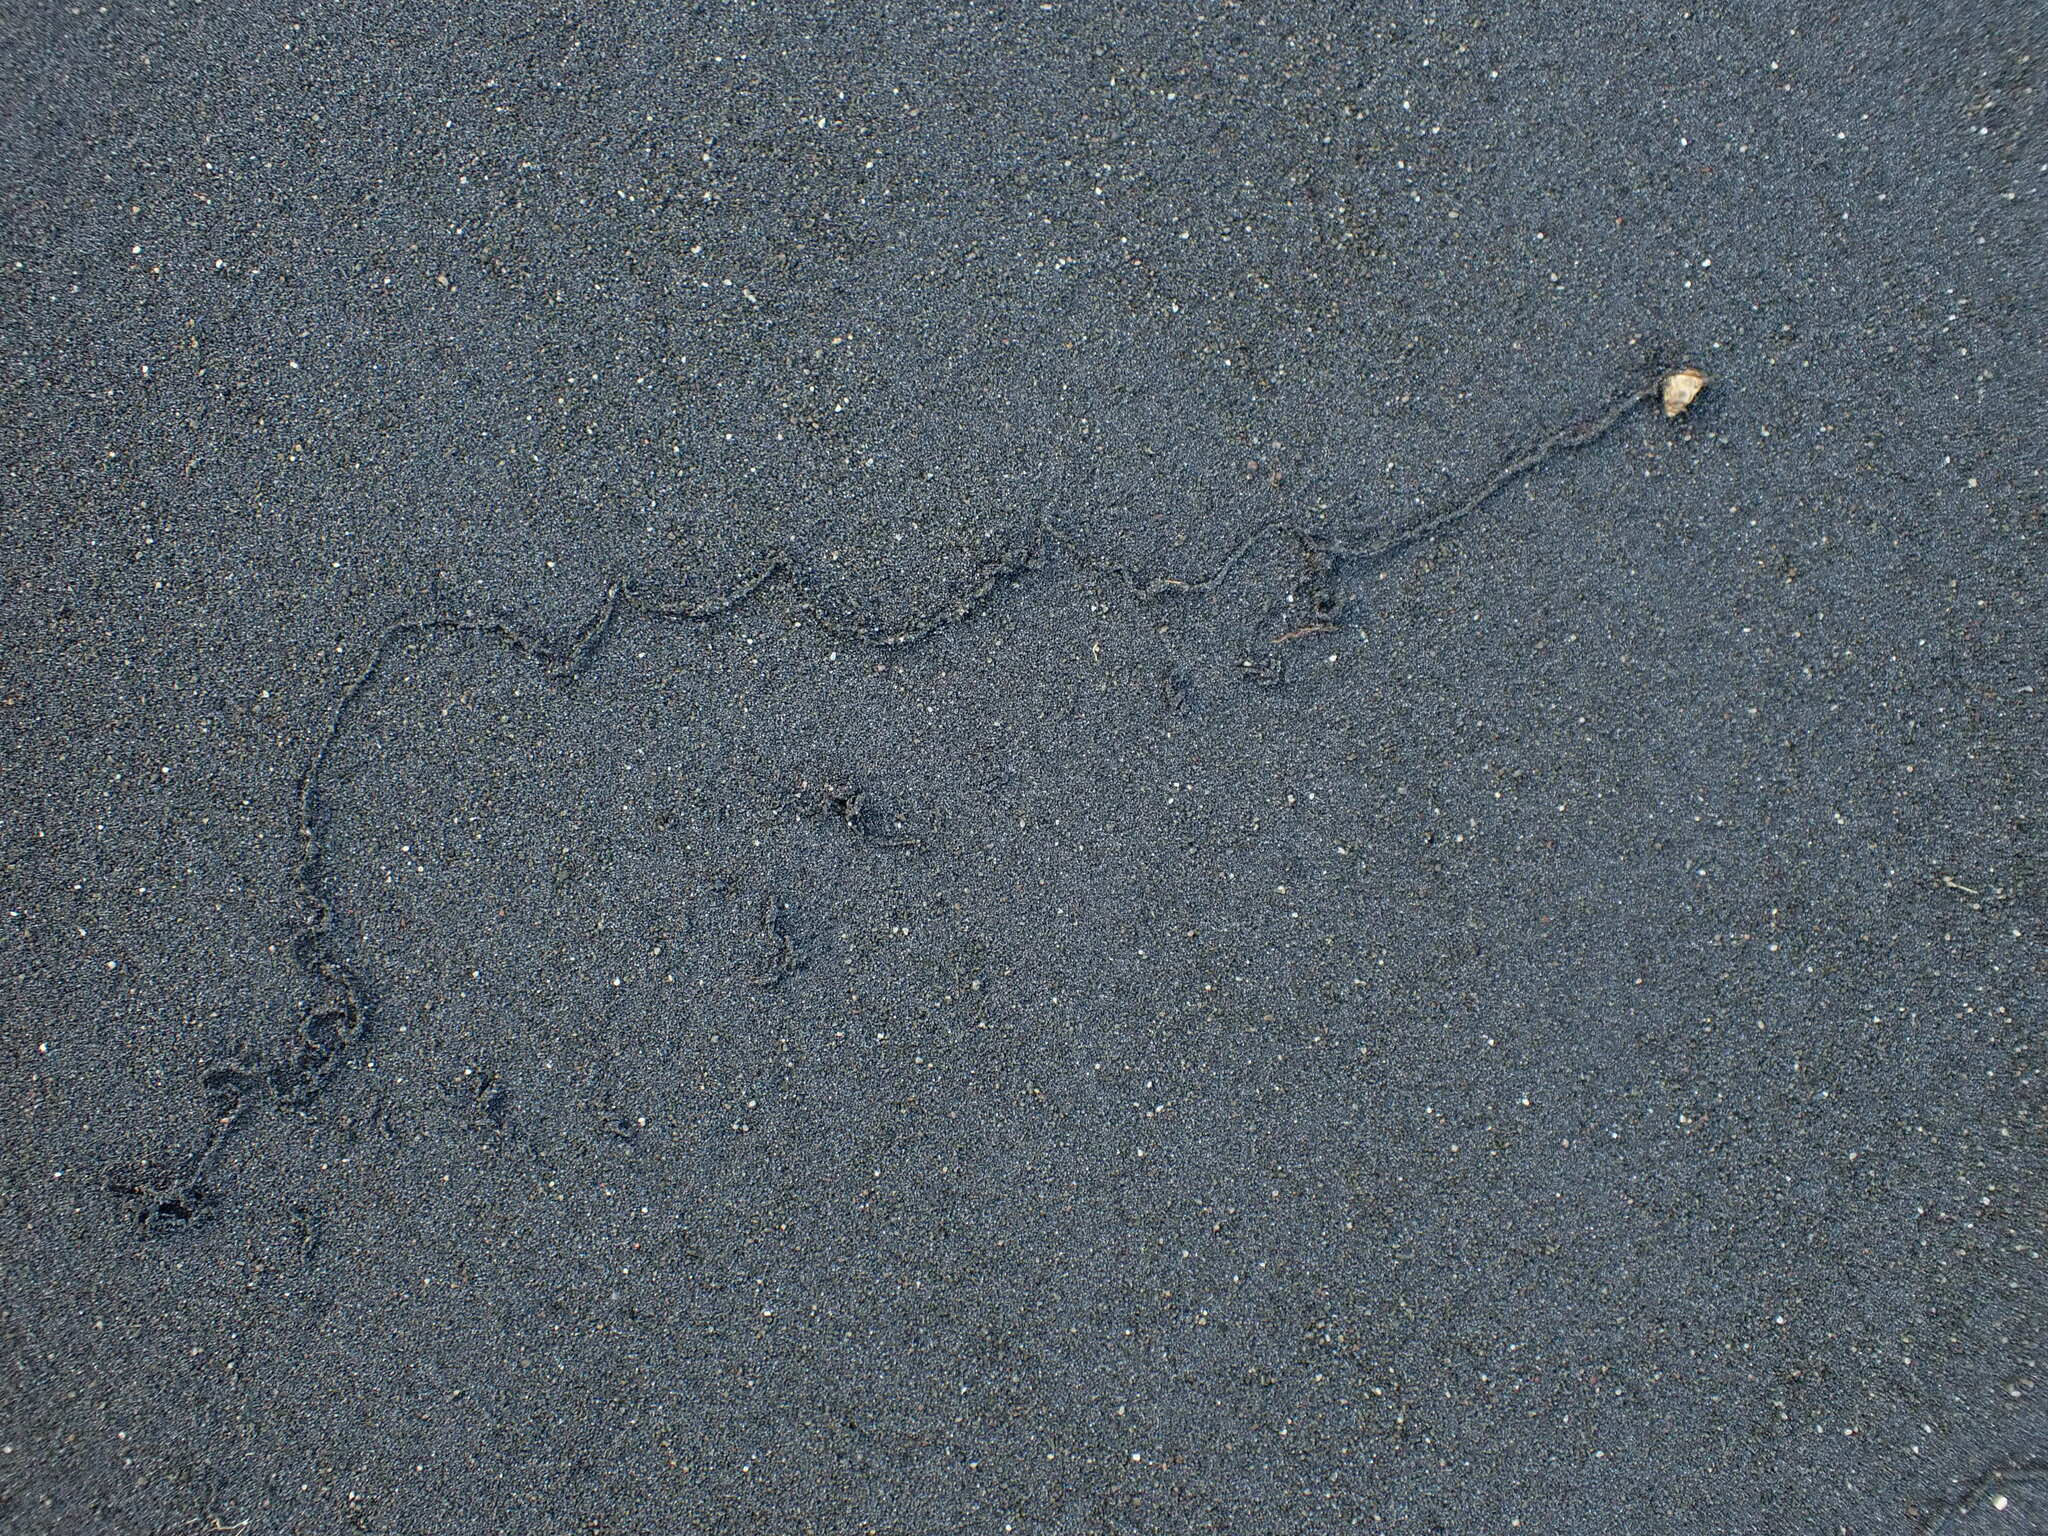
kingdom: Animalia
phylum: Mollusca
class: Gastropoda
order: Stylommatophora
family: Geomitridae
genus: Cochlicella
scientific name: Cochlicella barbara
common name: Potbellied helicellid
